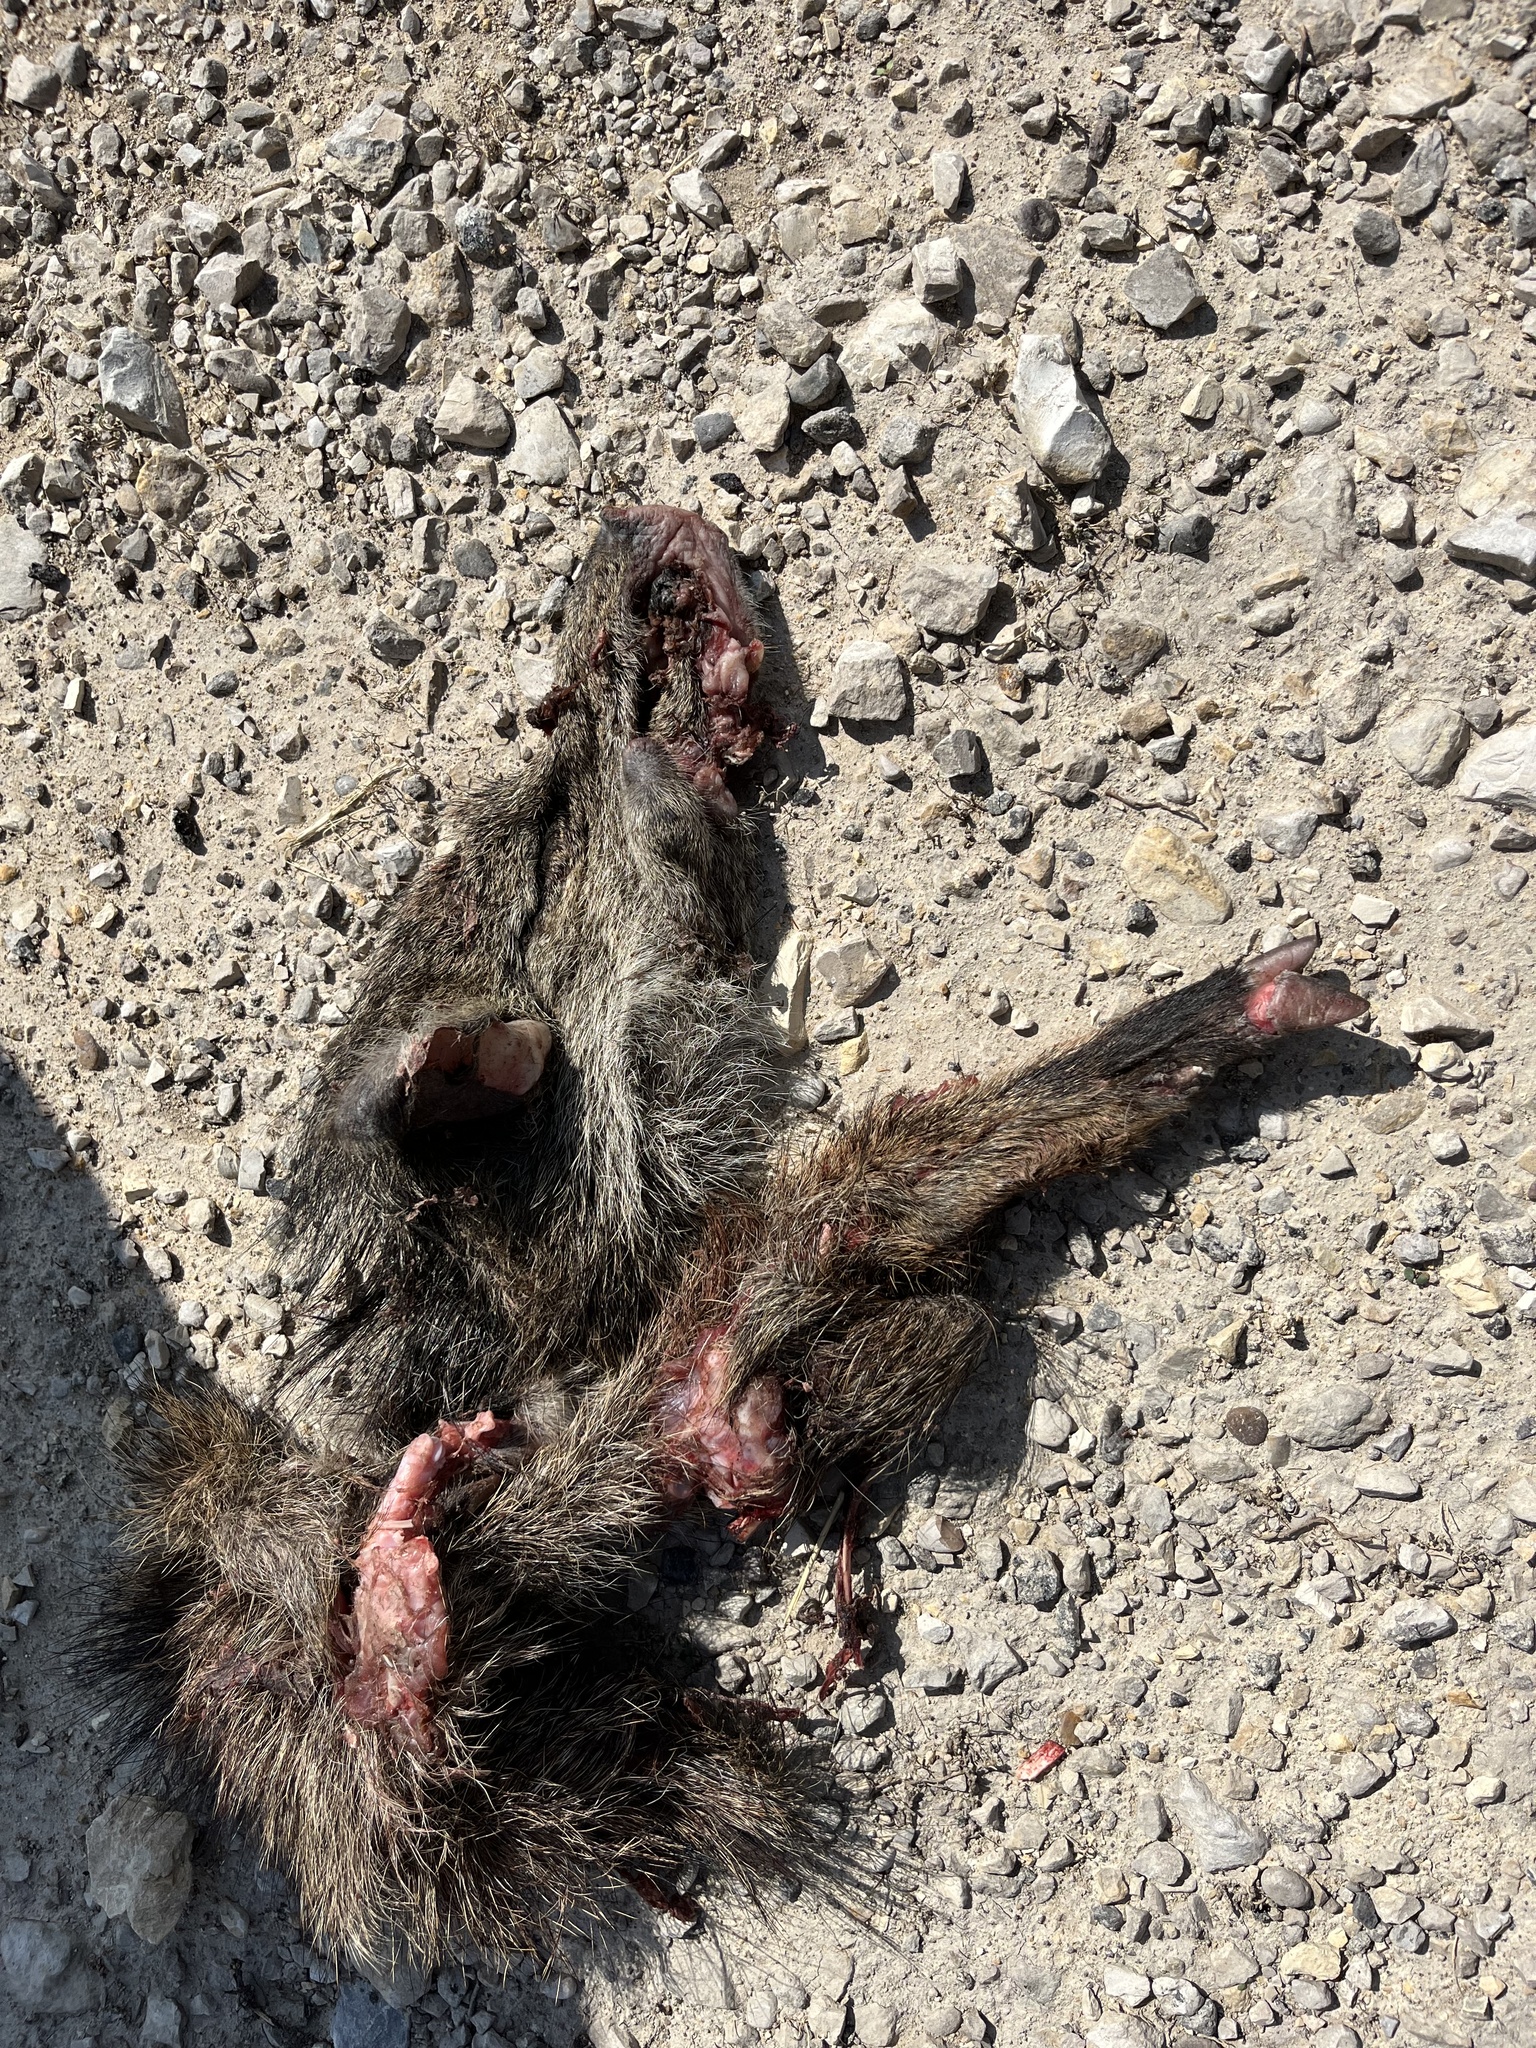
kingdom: Animalia
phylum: Chordata
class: Mammalia
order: Artiodactyla
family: Tayassuidae
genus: Pecari
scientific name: Pecari tajacu
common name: Collared peccary
